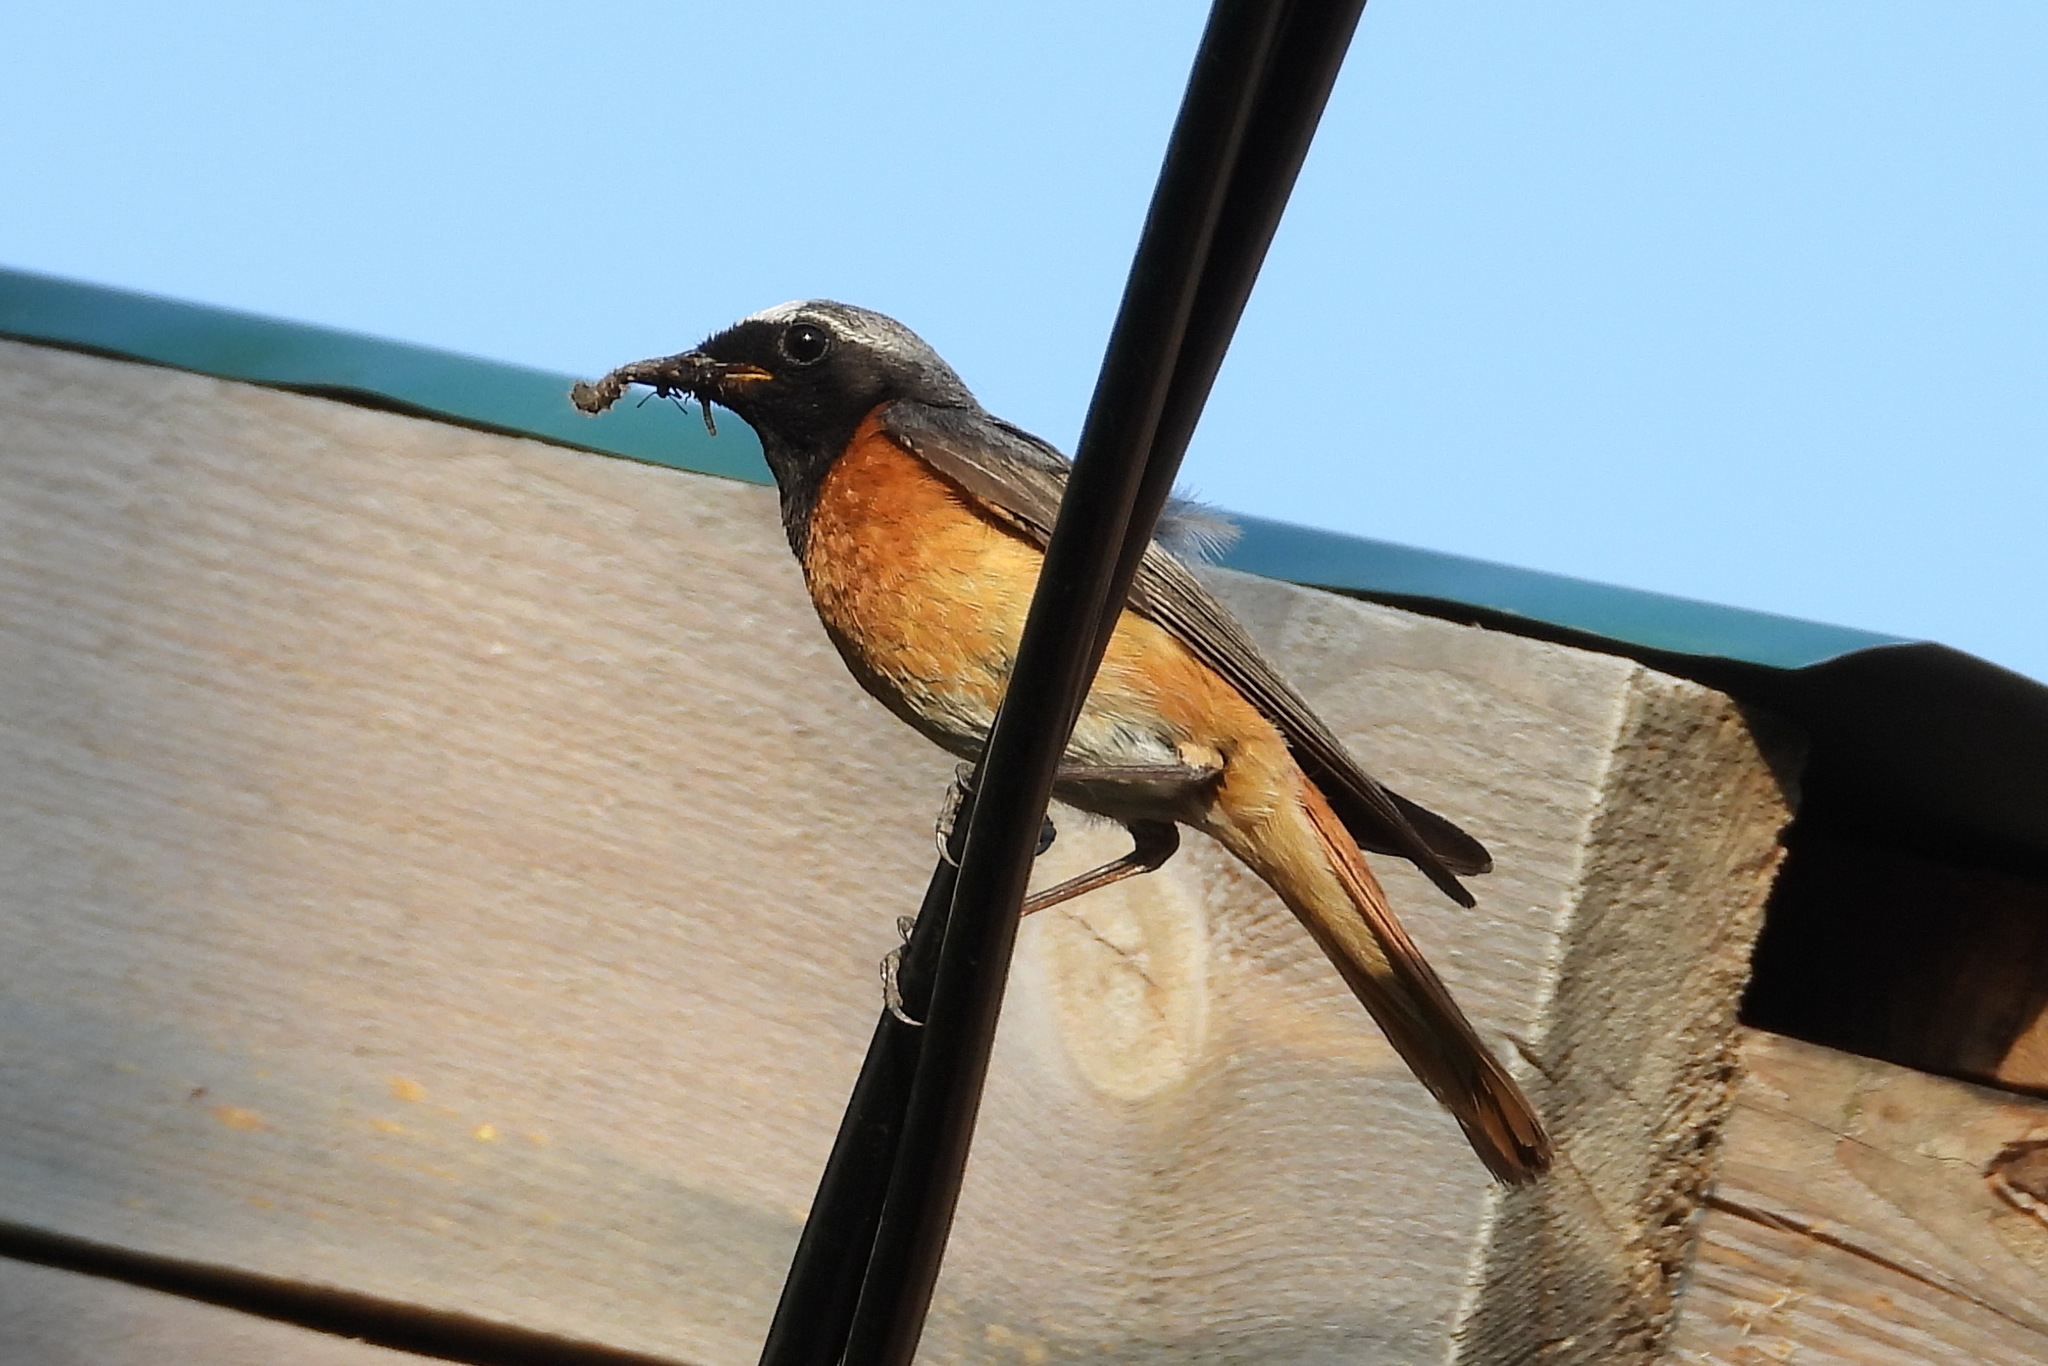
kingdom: Animalia
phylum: Chordata
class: Aves
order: Passeriformes
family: Muscicapidae
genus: Phoenicurus
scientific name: Phoenicurus phoenicurus
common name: Common redstart
